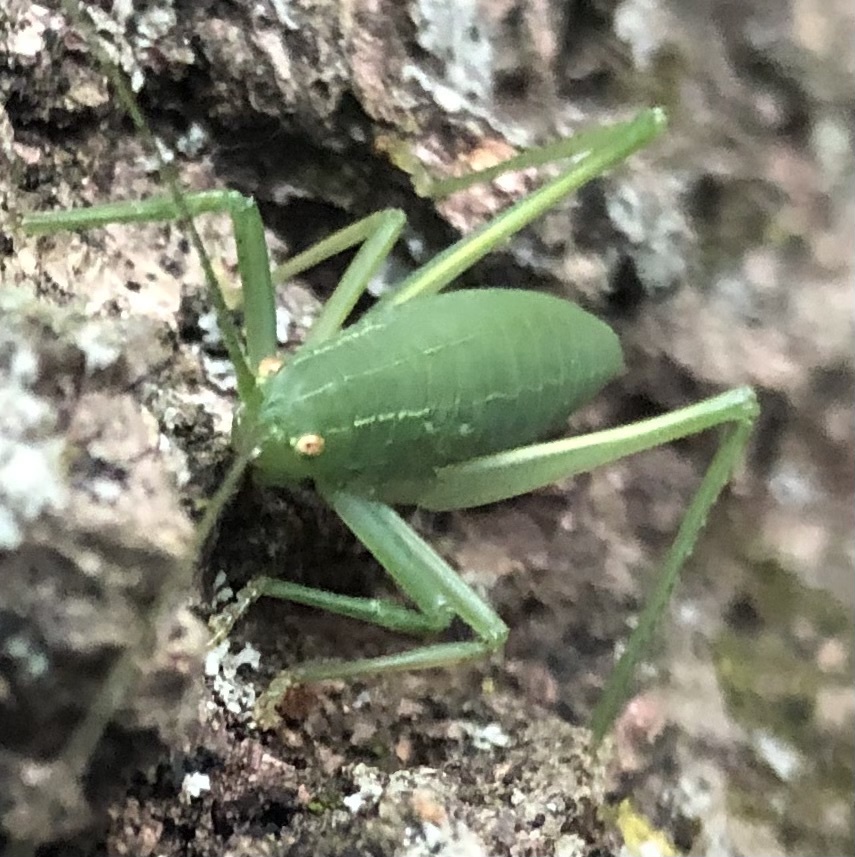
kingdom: Animalia
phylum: Arthropoda
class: Insecta
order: Orthoptera
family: Tettigoniidae
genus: Pterophylla
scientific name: Pterophylla camellifolia
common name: Common true katydid
